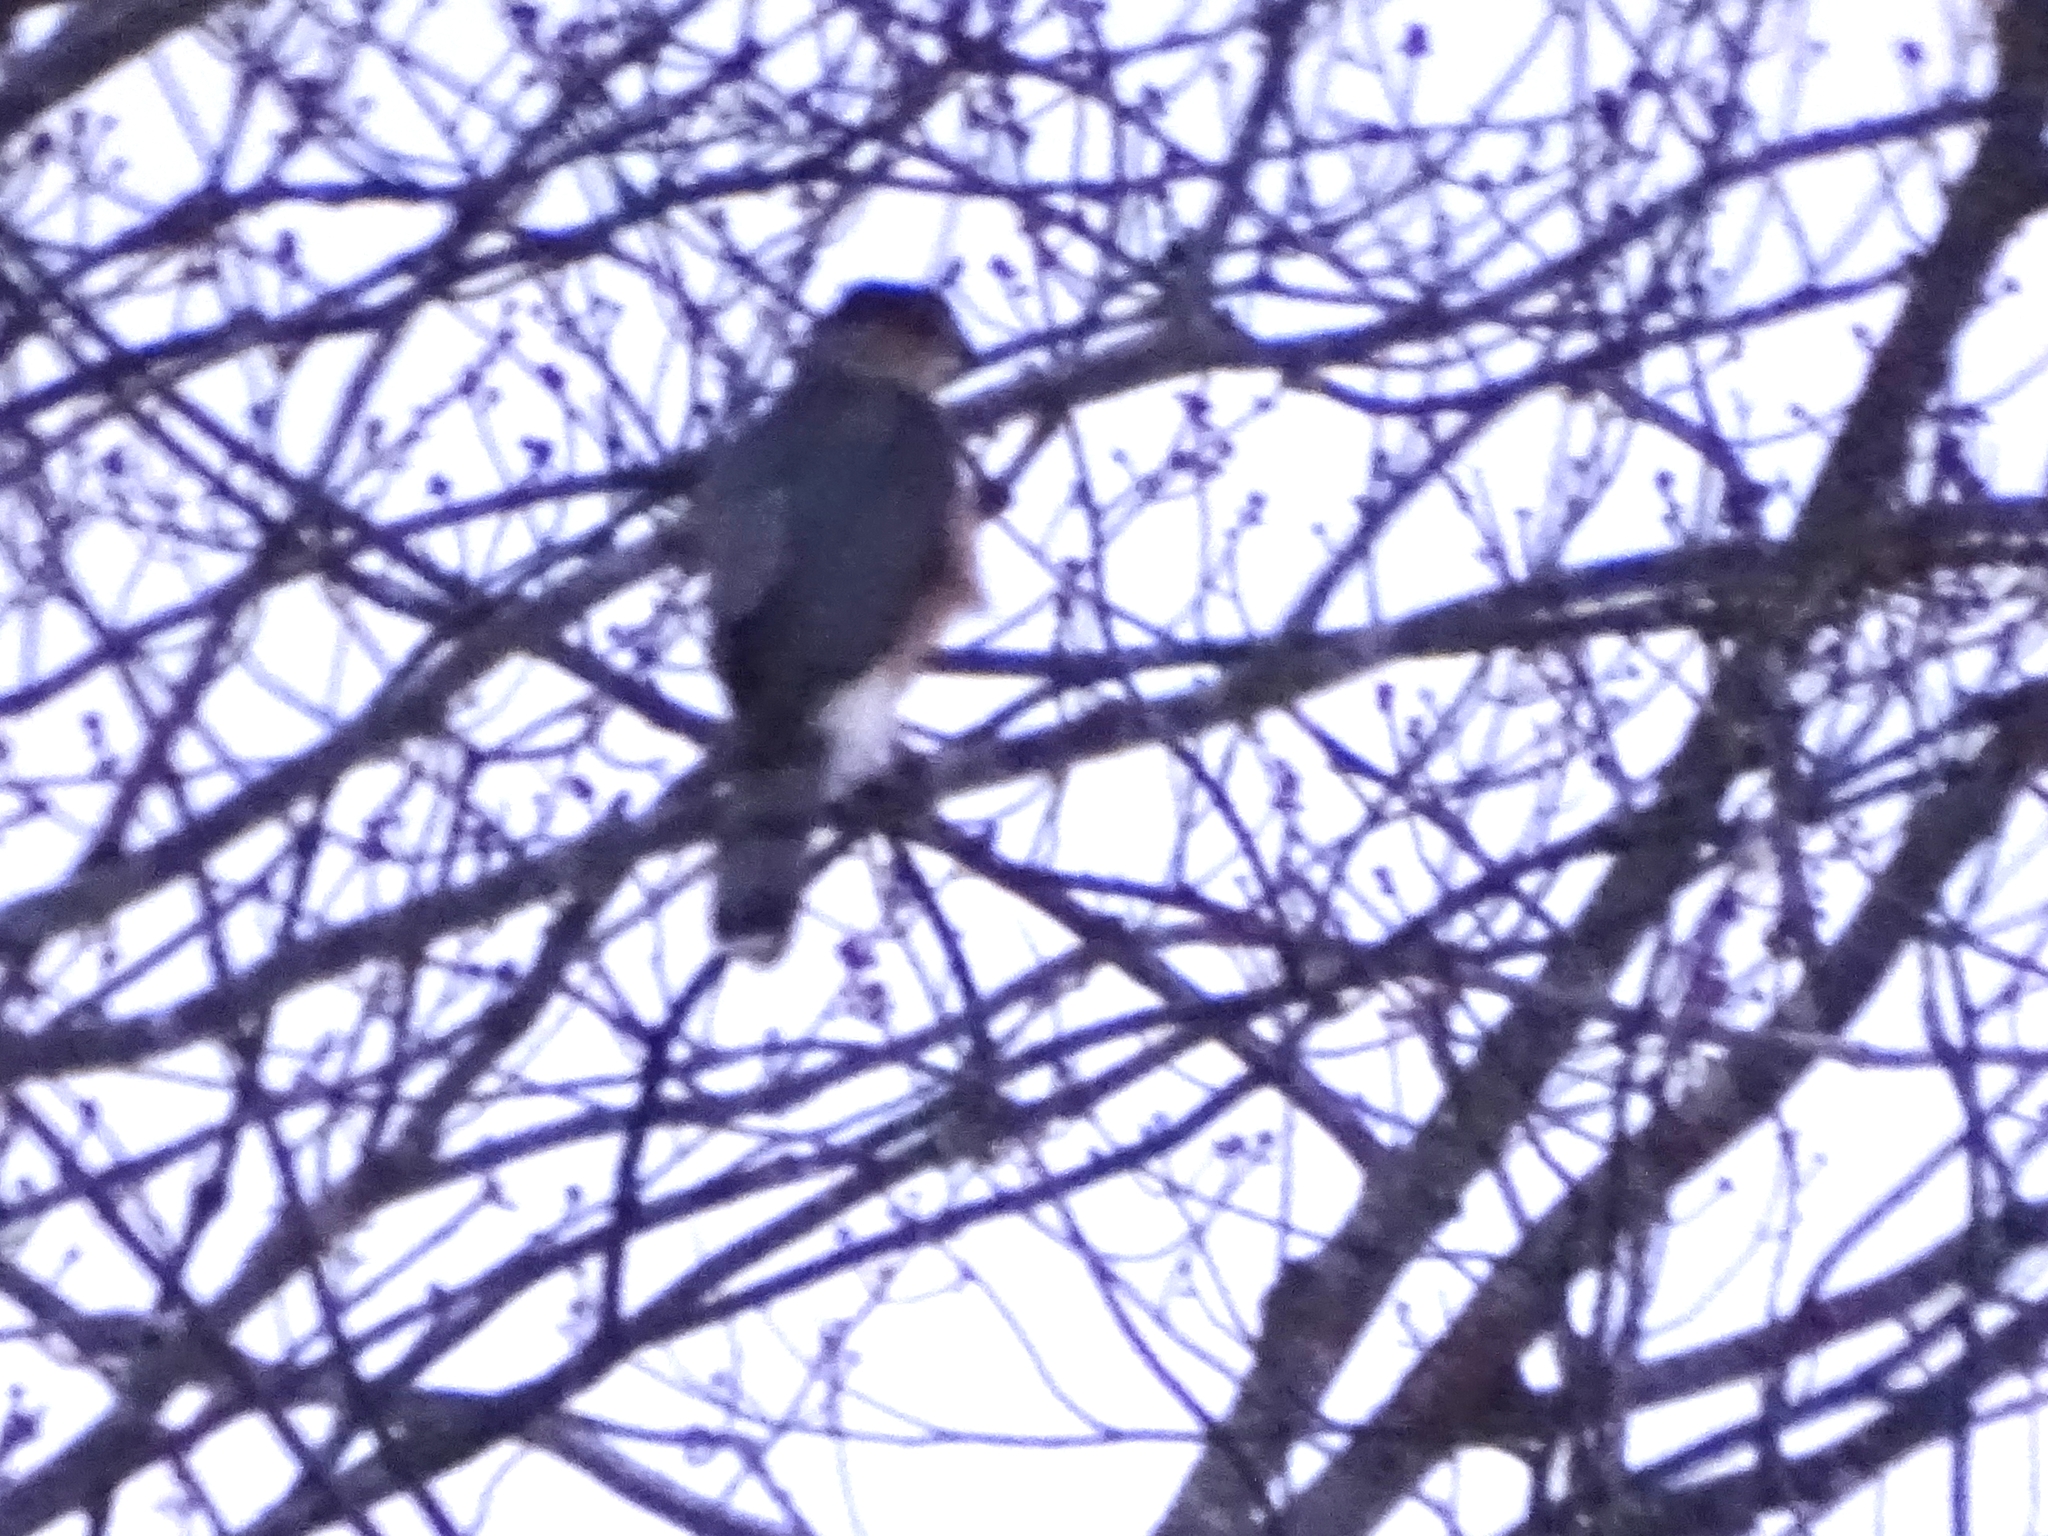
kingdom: Animalia
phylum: Chordata
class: Aves
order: Accipitriformes
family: Accipitridae
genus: Accipiter
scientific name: Accipiter cooperii
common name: Cooper's hawk
